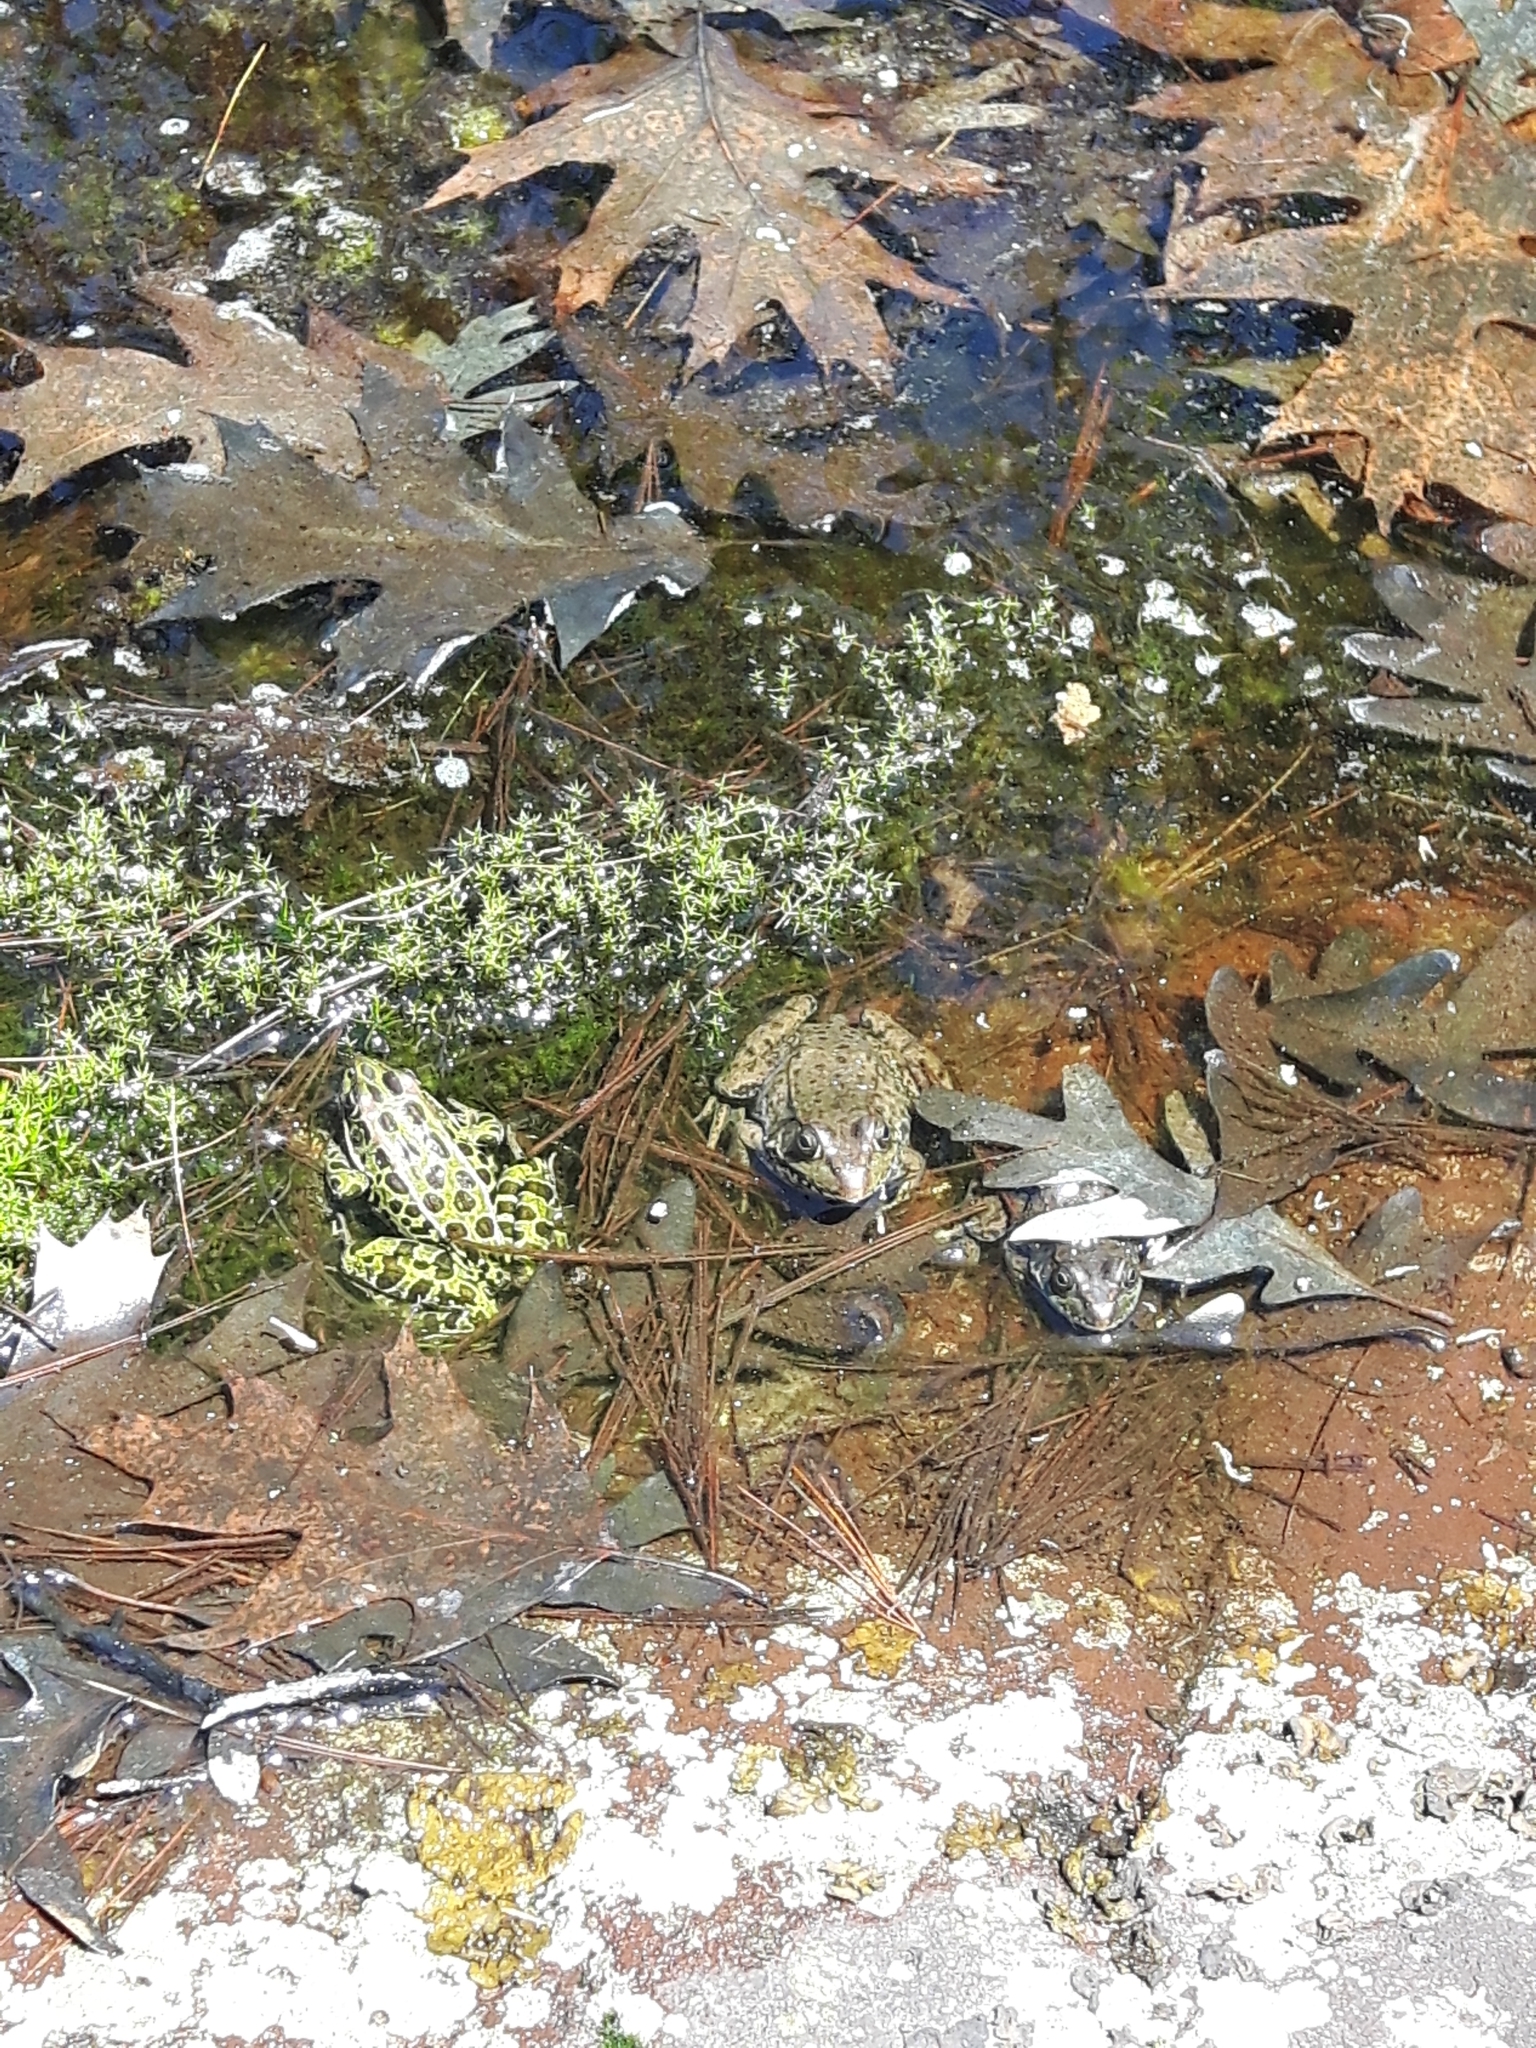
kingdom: Animalia
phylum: Chordata
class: Amphibia
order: Anura
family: Ranidae
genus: Lithobates
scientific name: Lithobates pipiens
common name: Northern leopard frog
